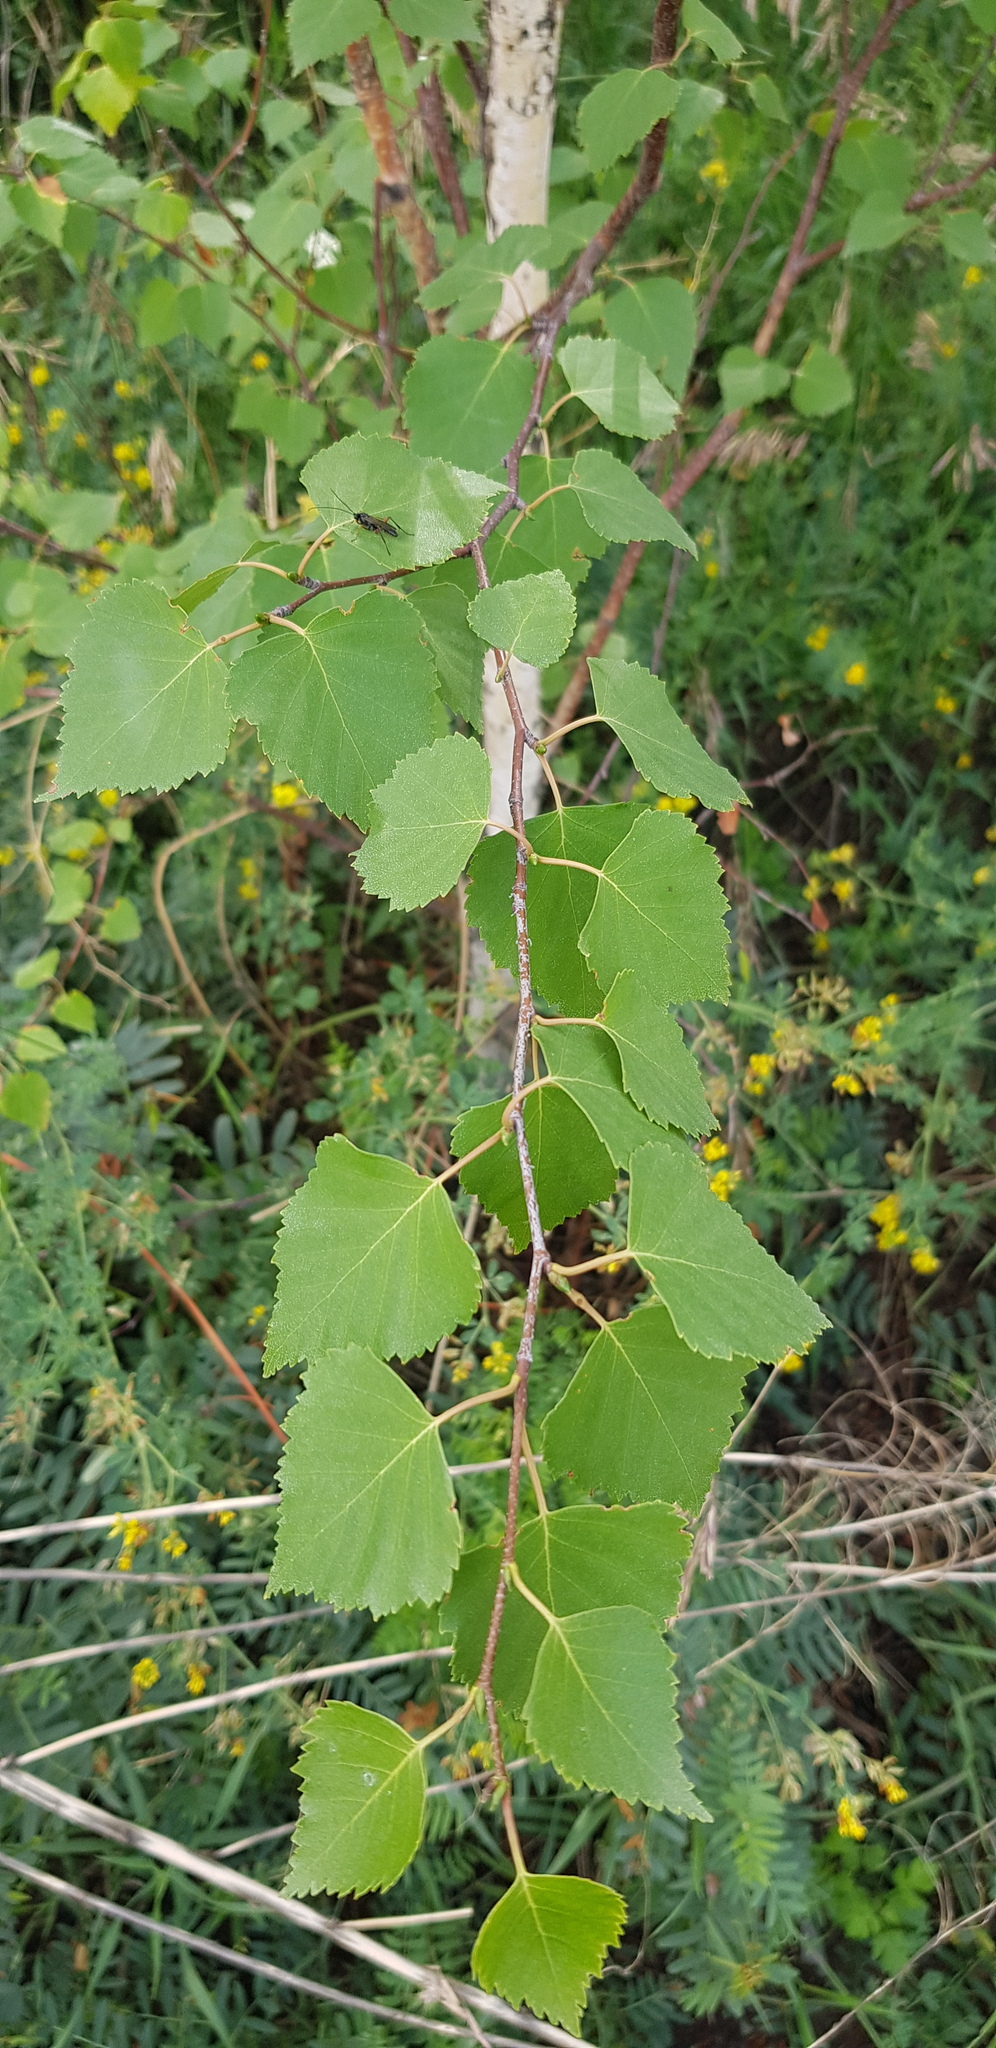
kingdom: Plantae
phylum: Tracheophyta
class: Magnoliopsida
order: Fagales
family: Betulaceae
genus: Betula
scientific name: Betula pendula
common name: Silver birch
